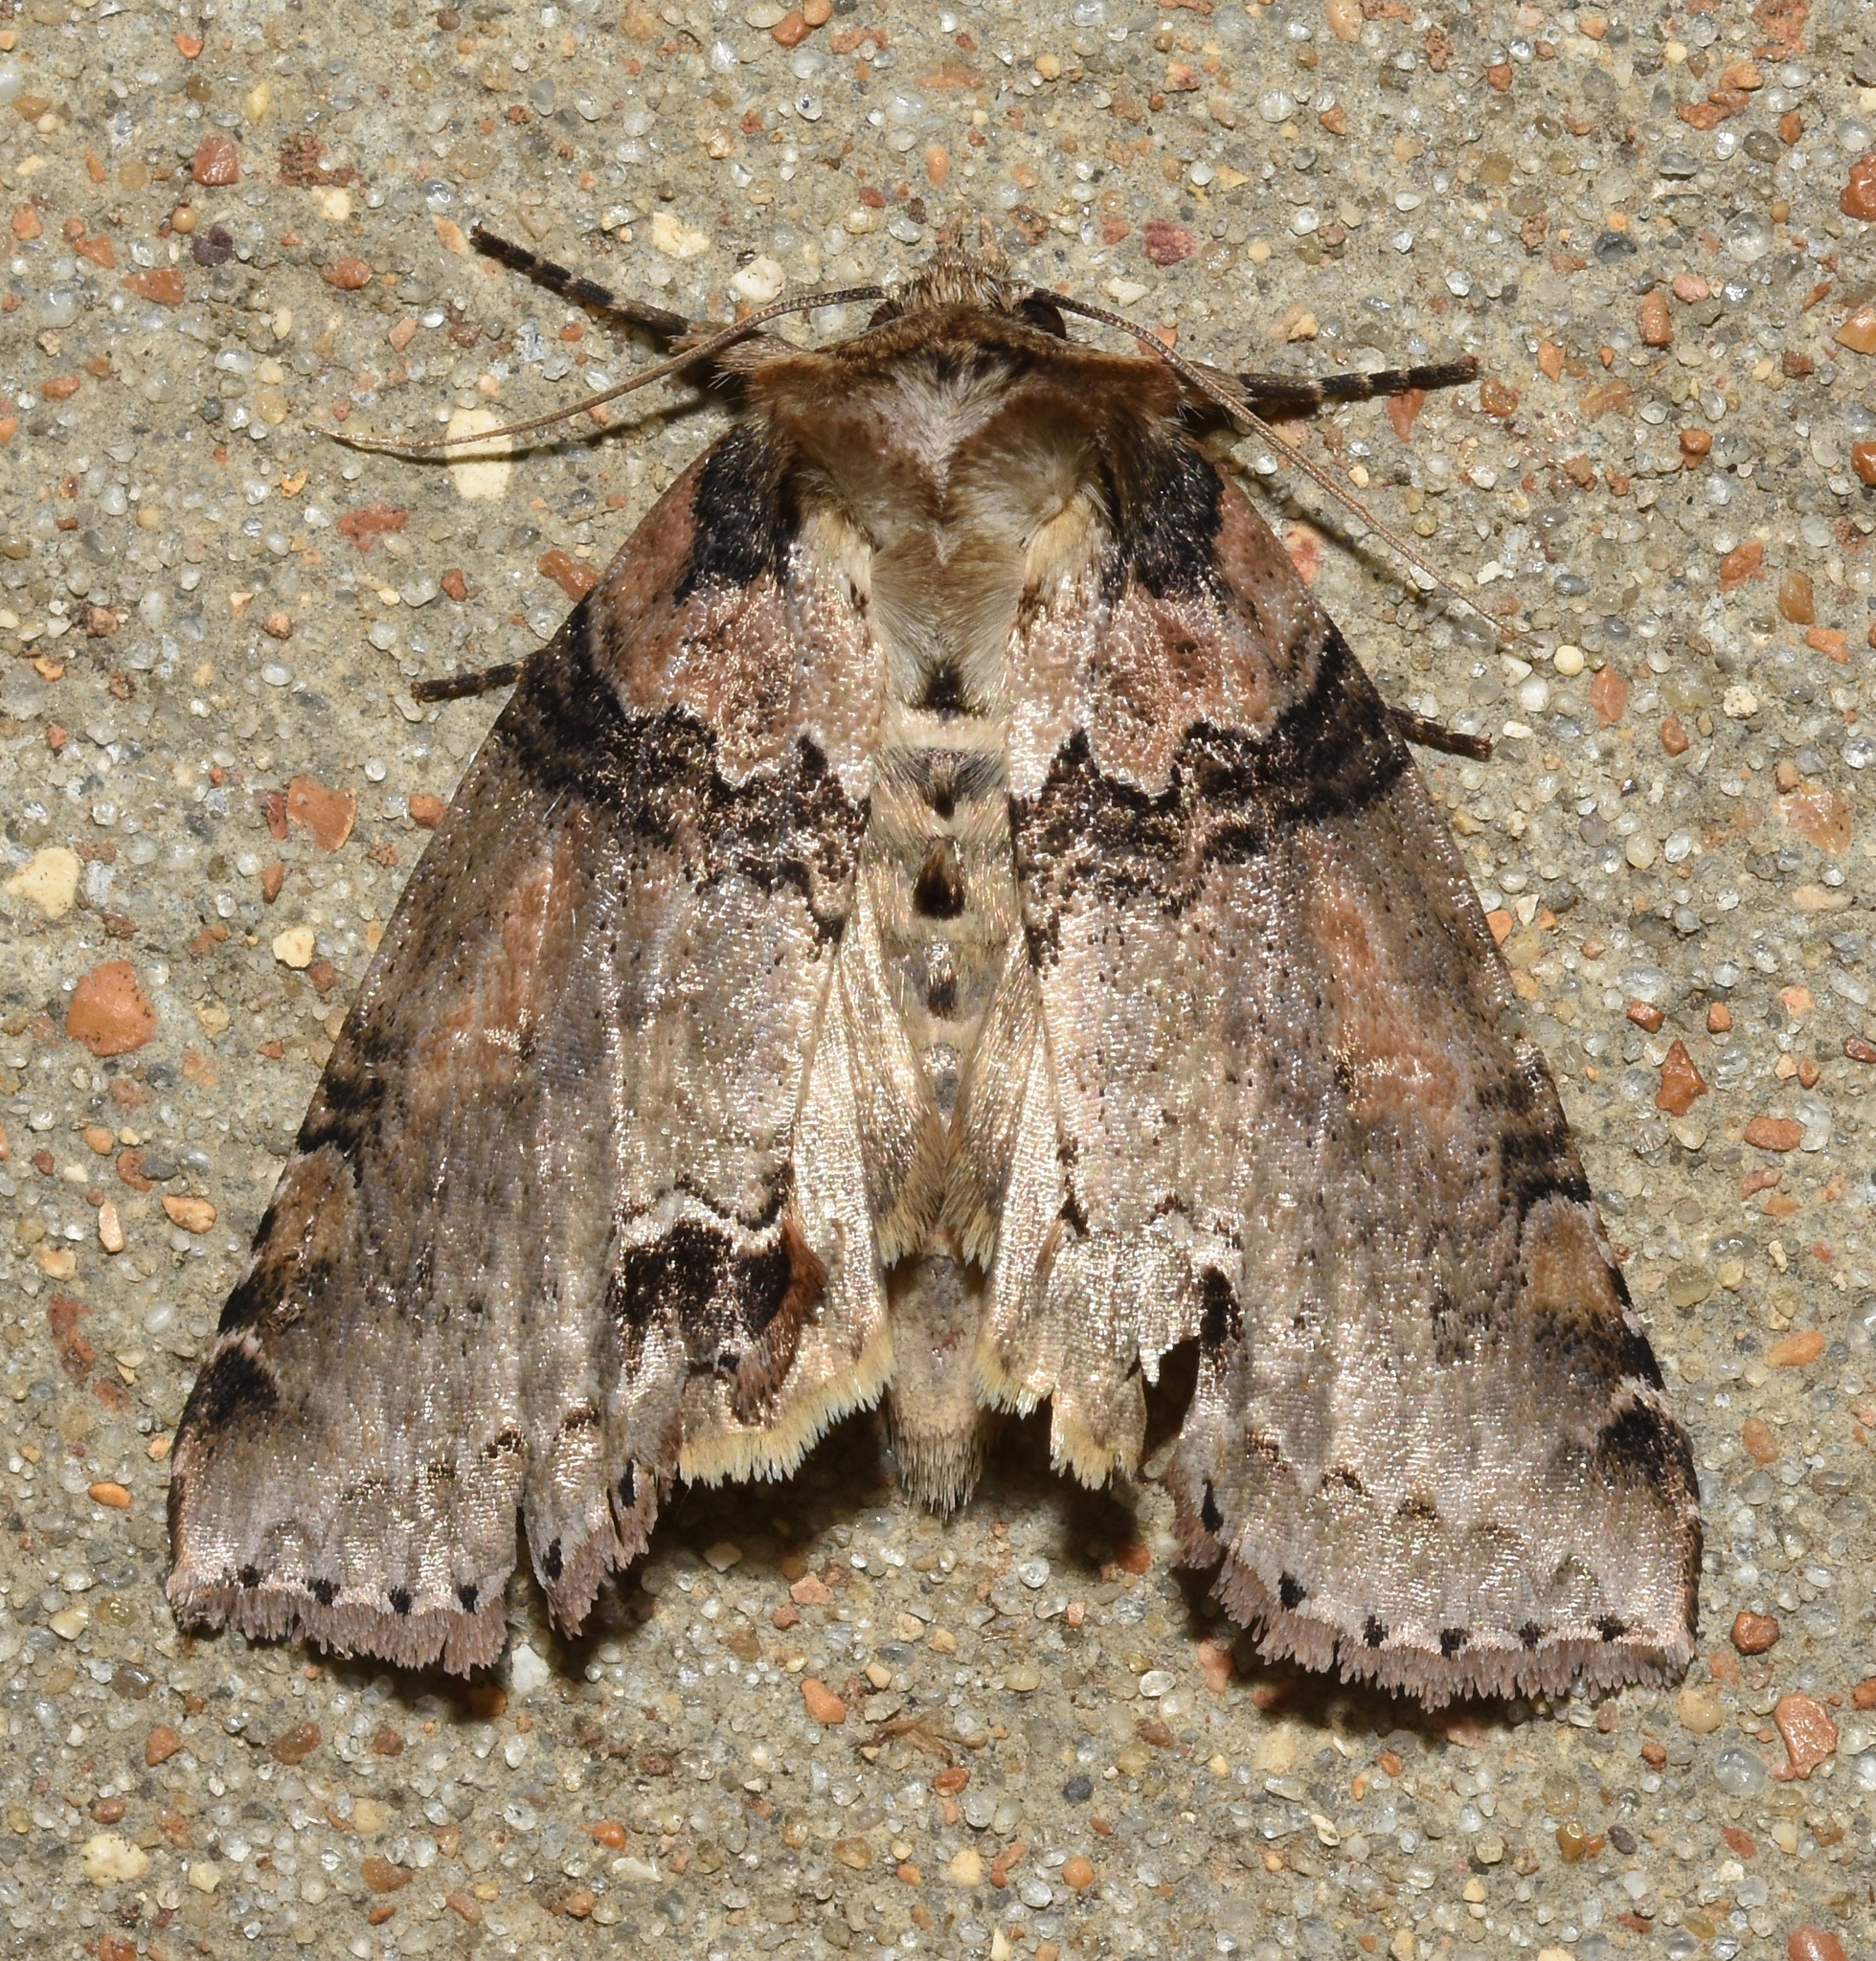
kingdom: Animalia
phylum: Arthropoda
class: Insecta
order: Lepidoptera
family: Drepanidae
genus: Pseudothyatira
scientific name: Pseudothyatira cymatophoroides
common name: Tufted thyatirid moth
